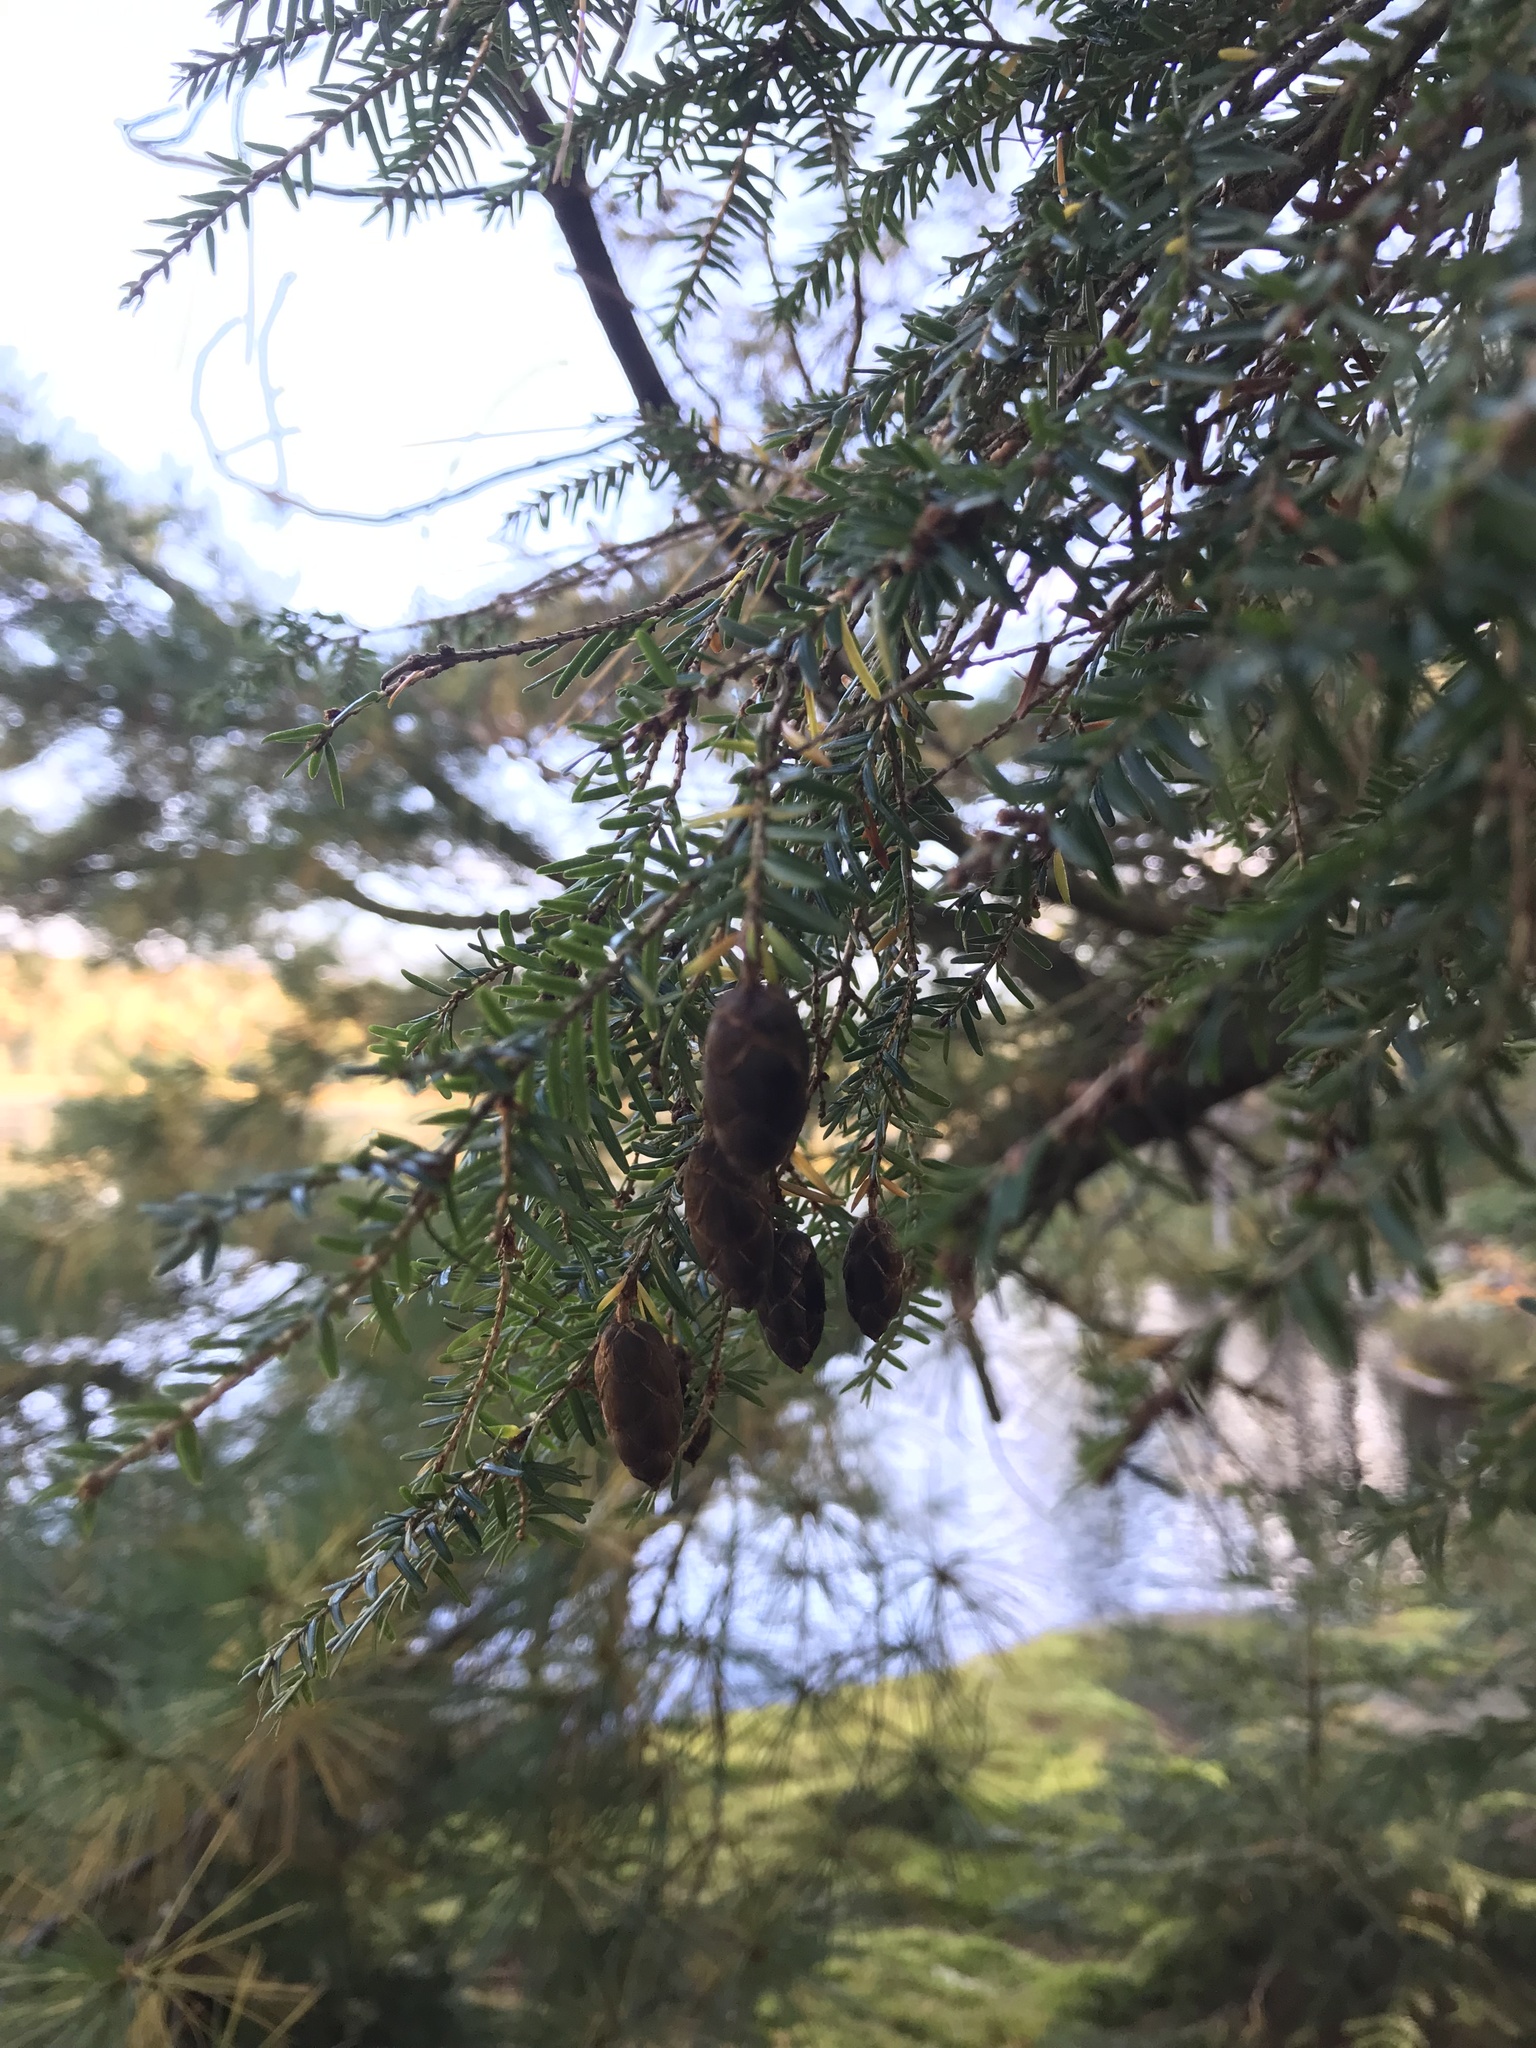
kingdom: Plantae
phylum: Tracheophyta
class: Pinopsida
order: Pinales
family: Pinaceae
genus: Tsuga
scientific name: Tsuga canadensis
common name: Eastern hemlock
